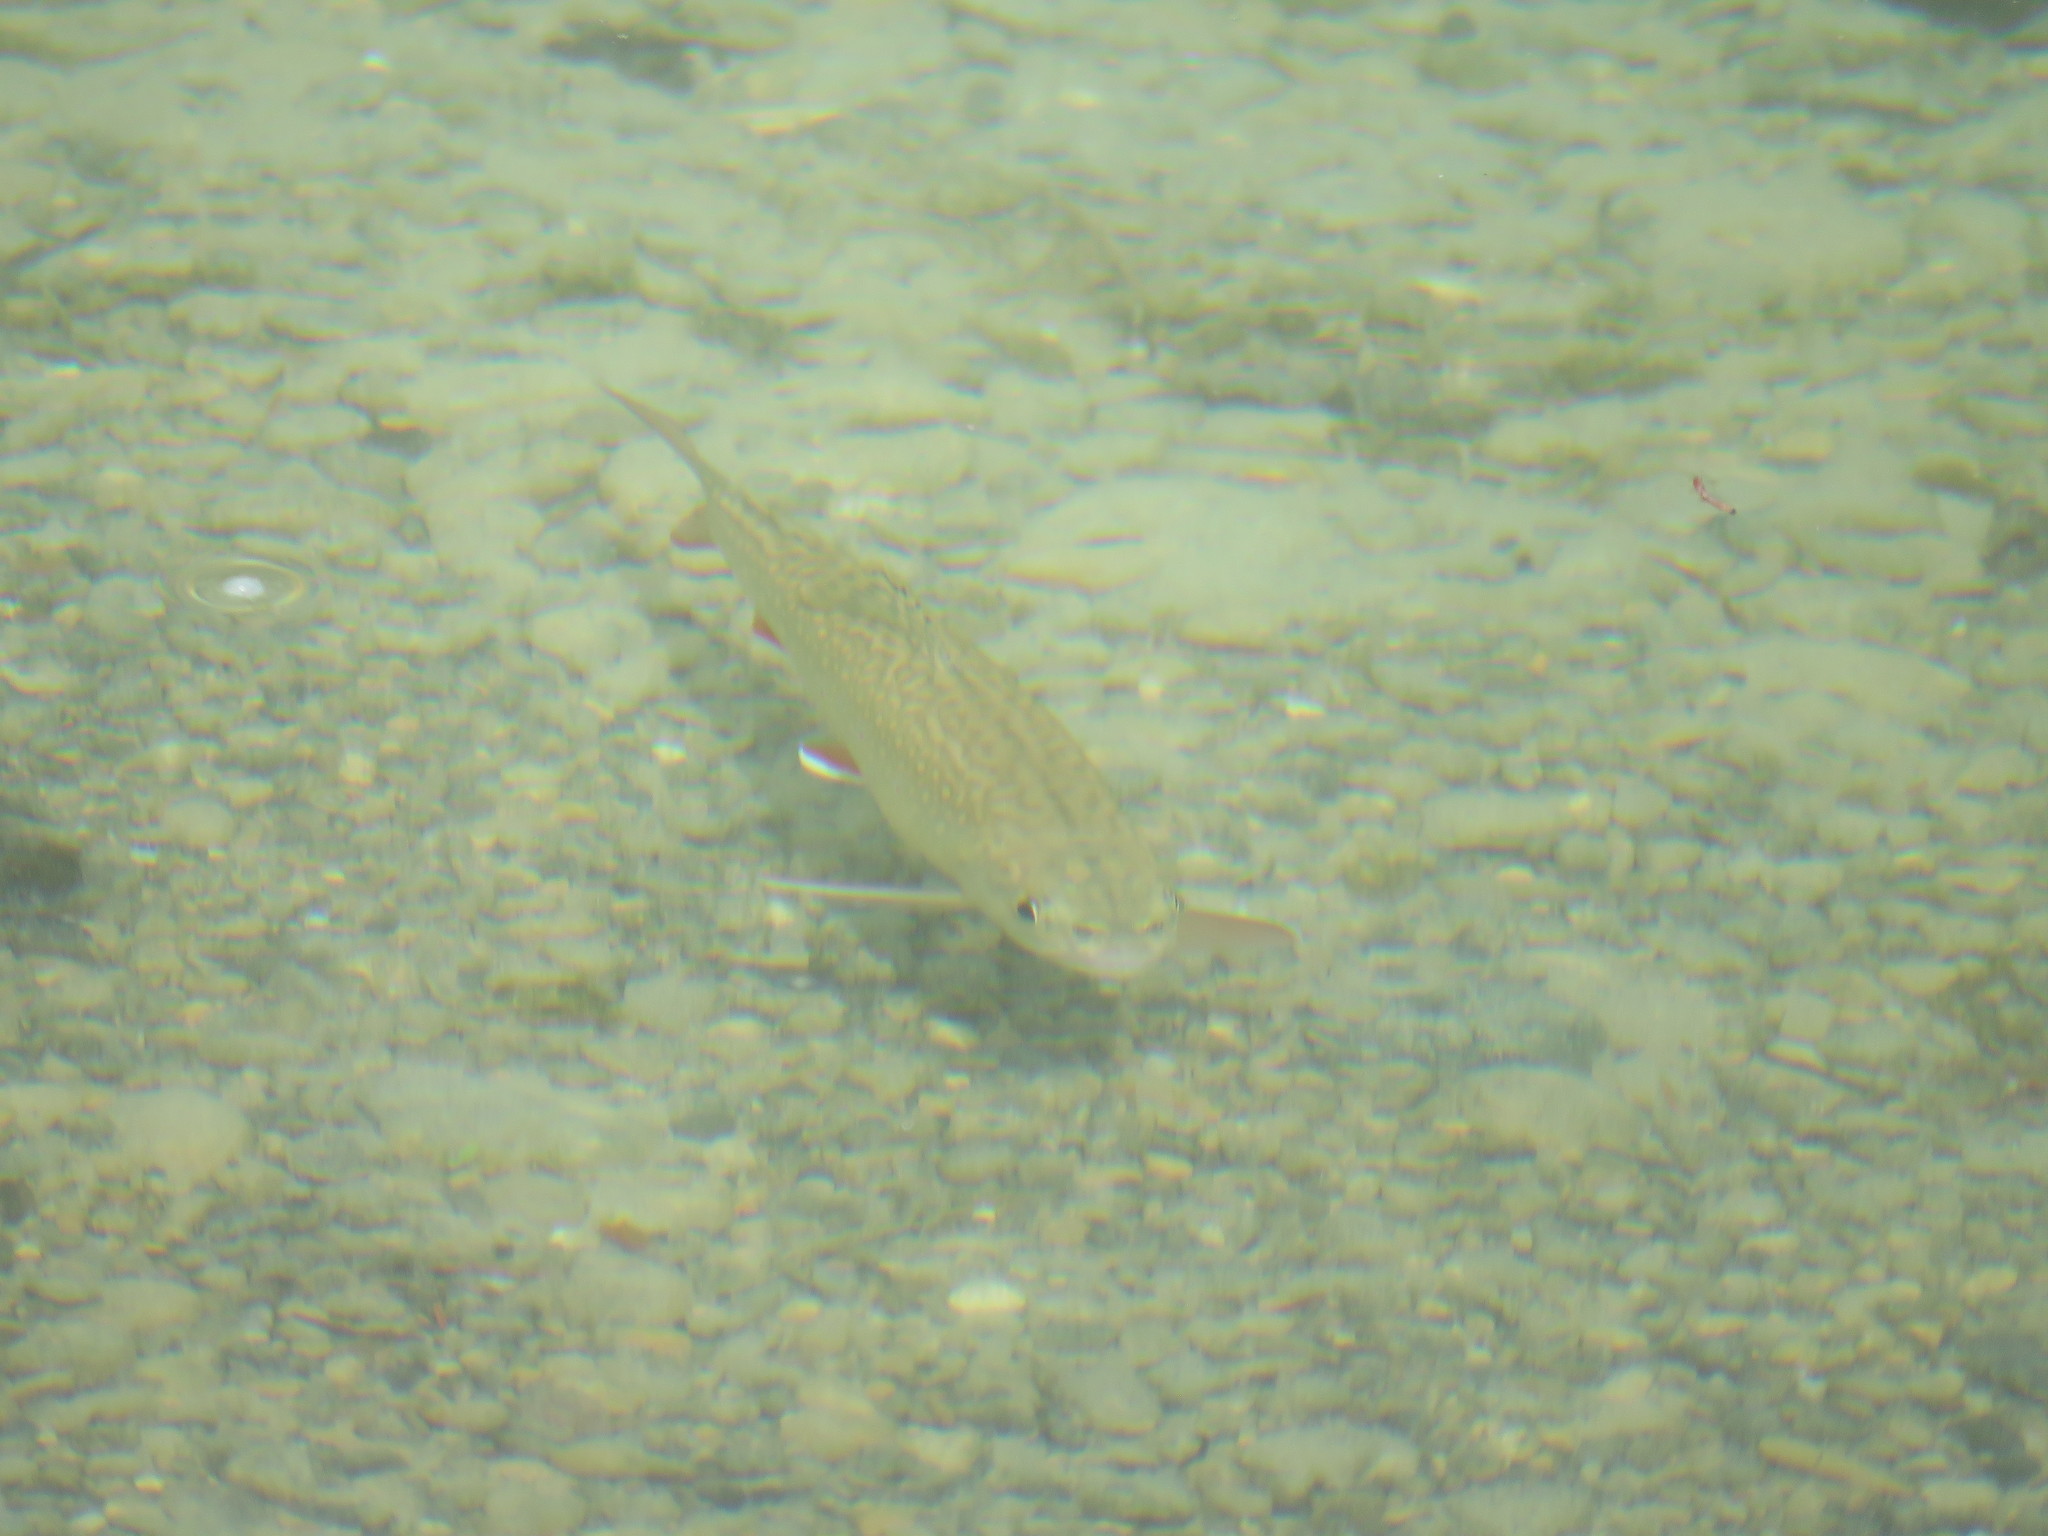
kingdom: Animalia
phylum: Chordata
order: Salmoniformes
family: Salmonidae
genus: Salvelinus
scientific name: Salvelinus fontinalis
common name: Brook trout
